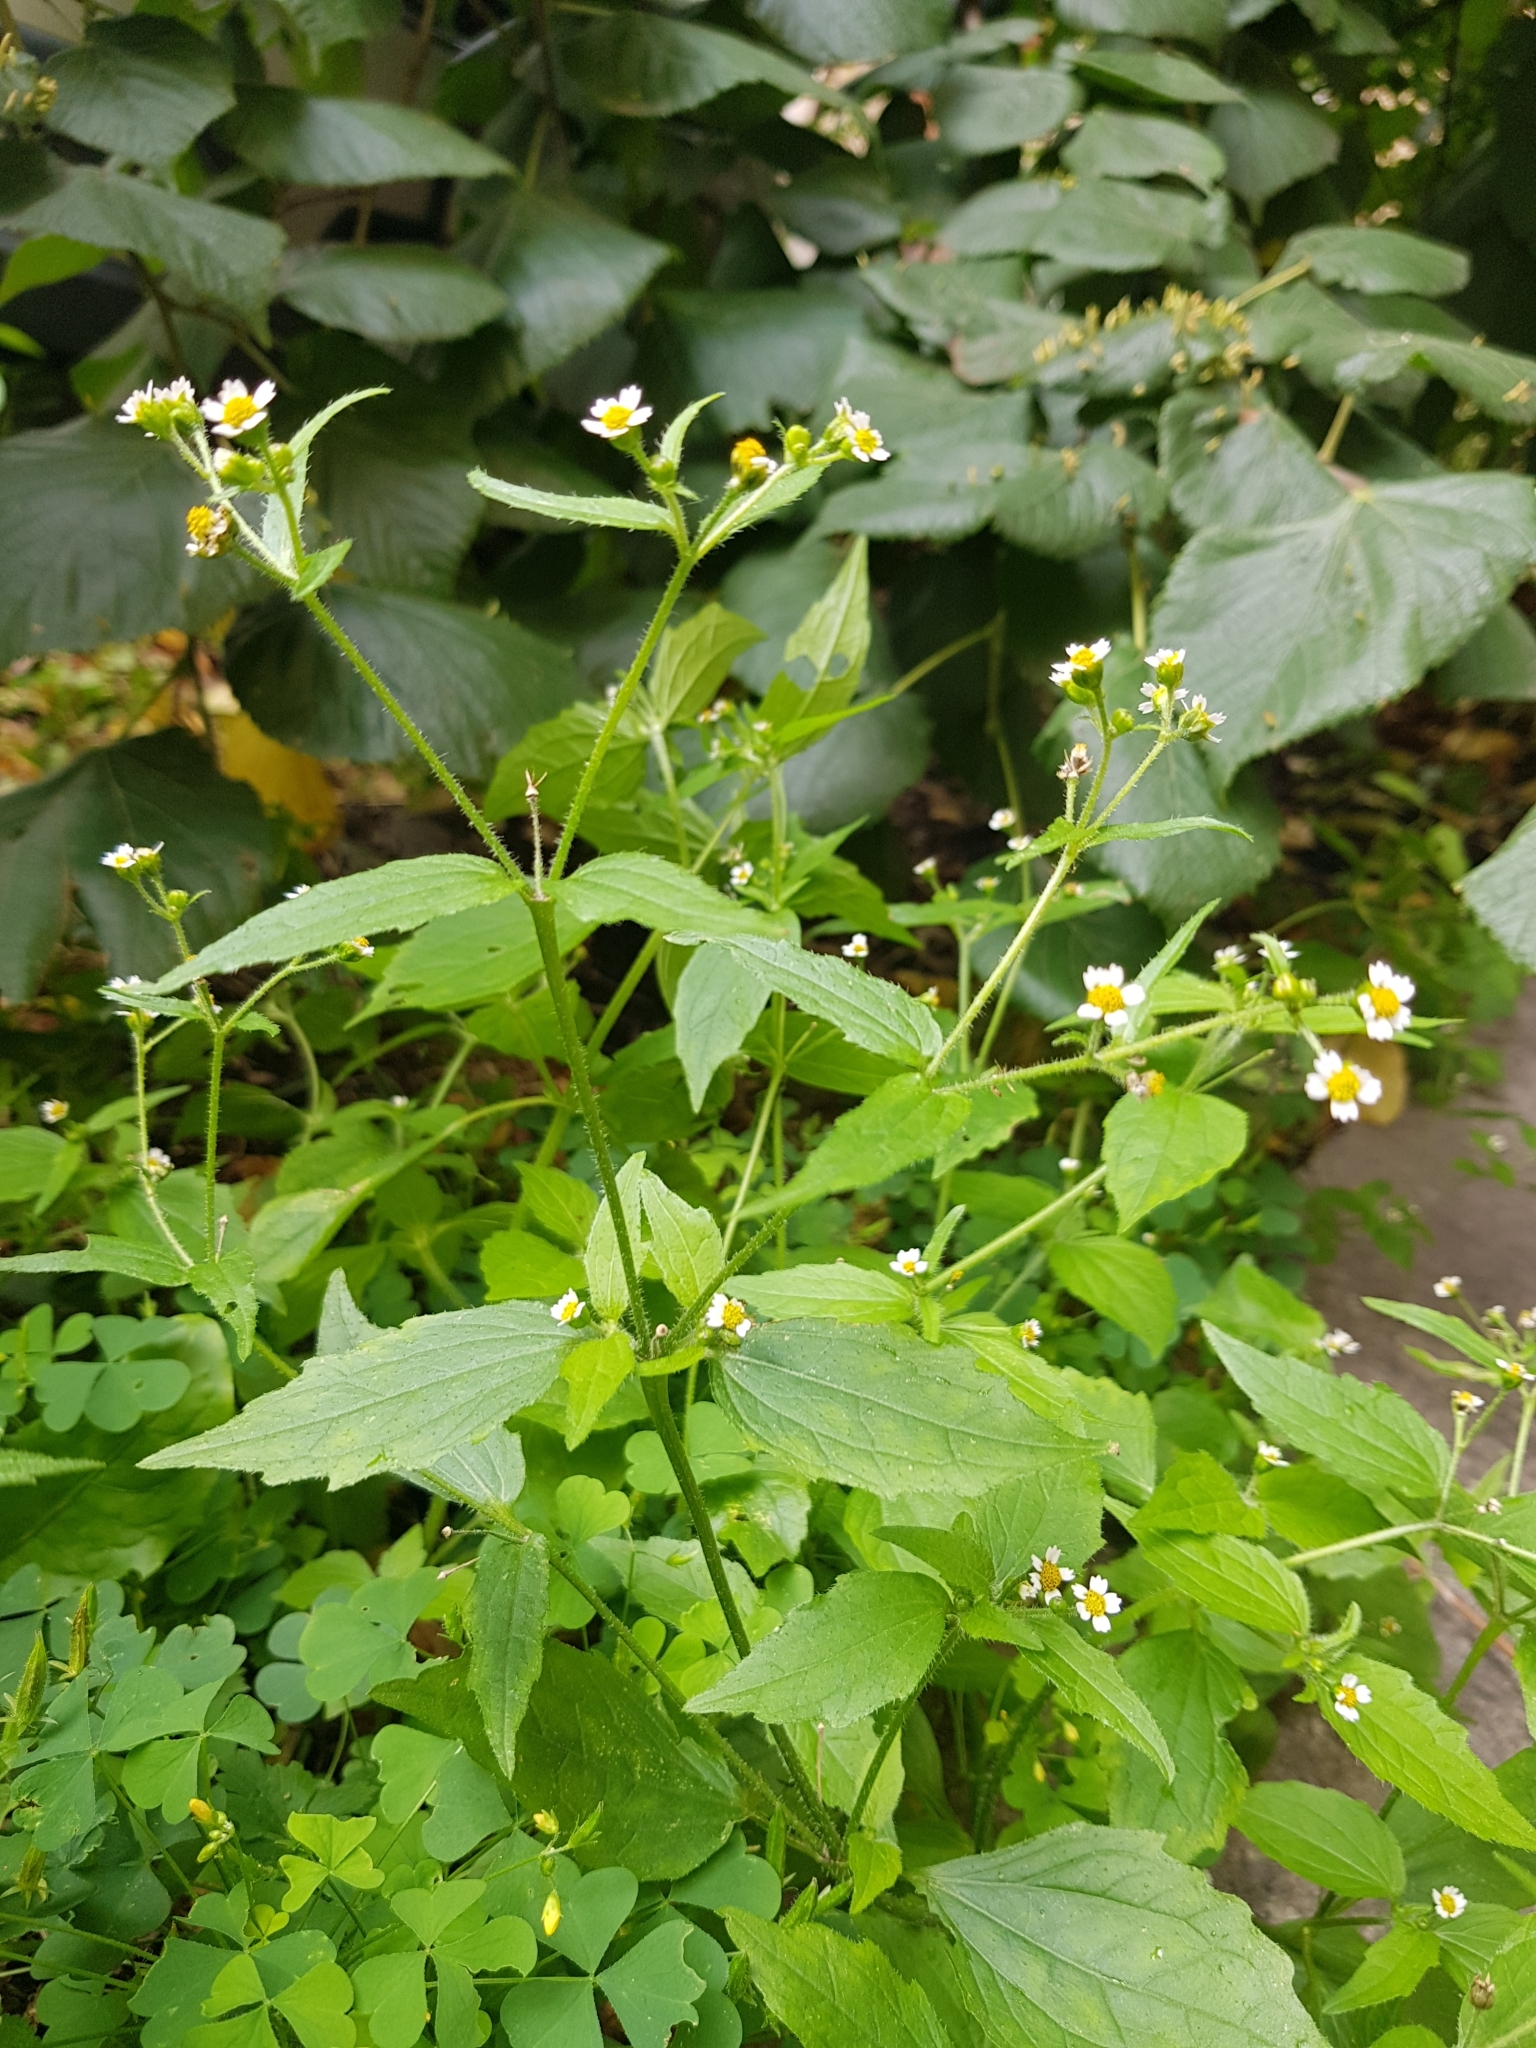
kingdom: Plantae
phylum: Tracheophyta
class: Magnoliopsida
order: Asterales
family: Asteraceae
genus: Galinsoga
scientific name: Galinsoga quadriradiata
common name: Shaggy soldier
